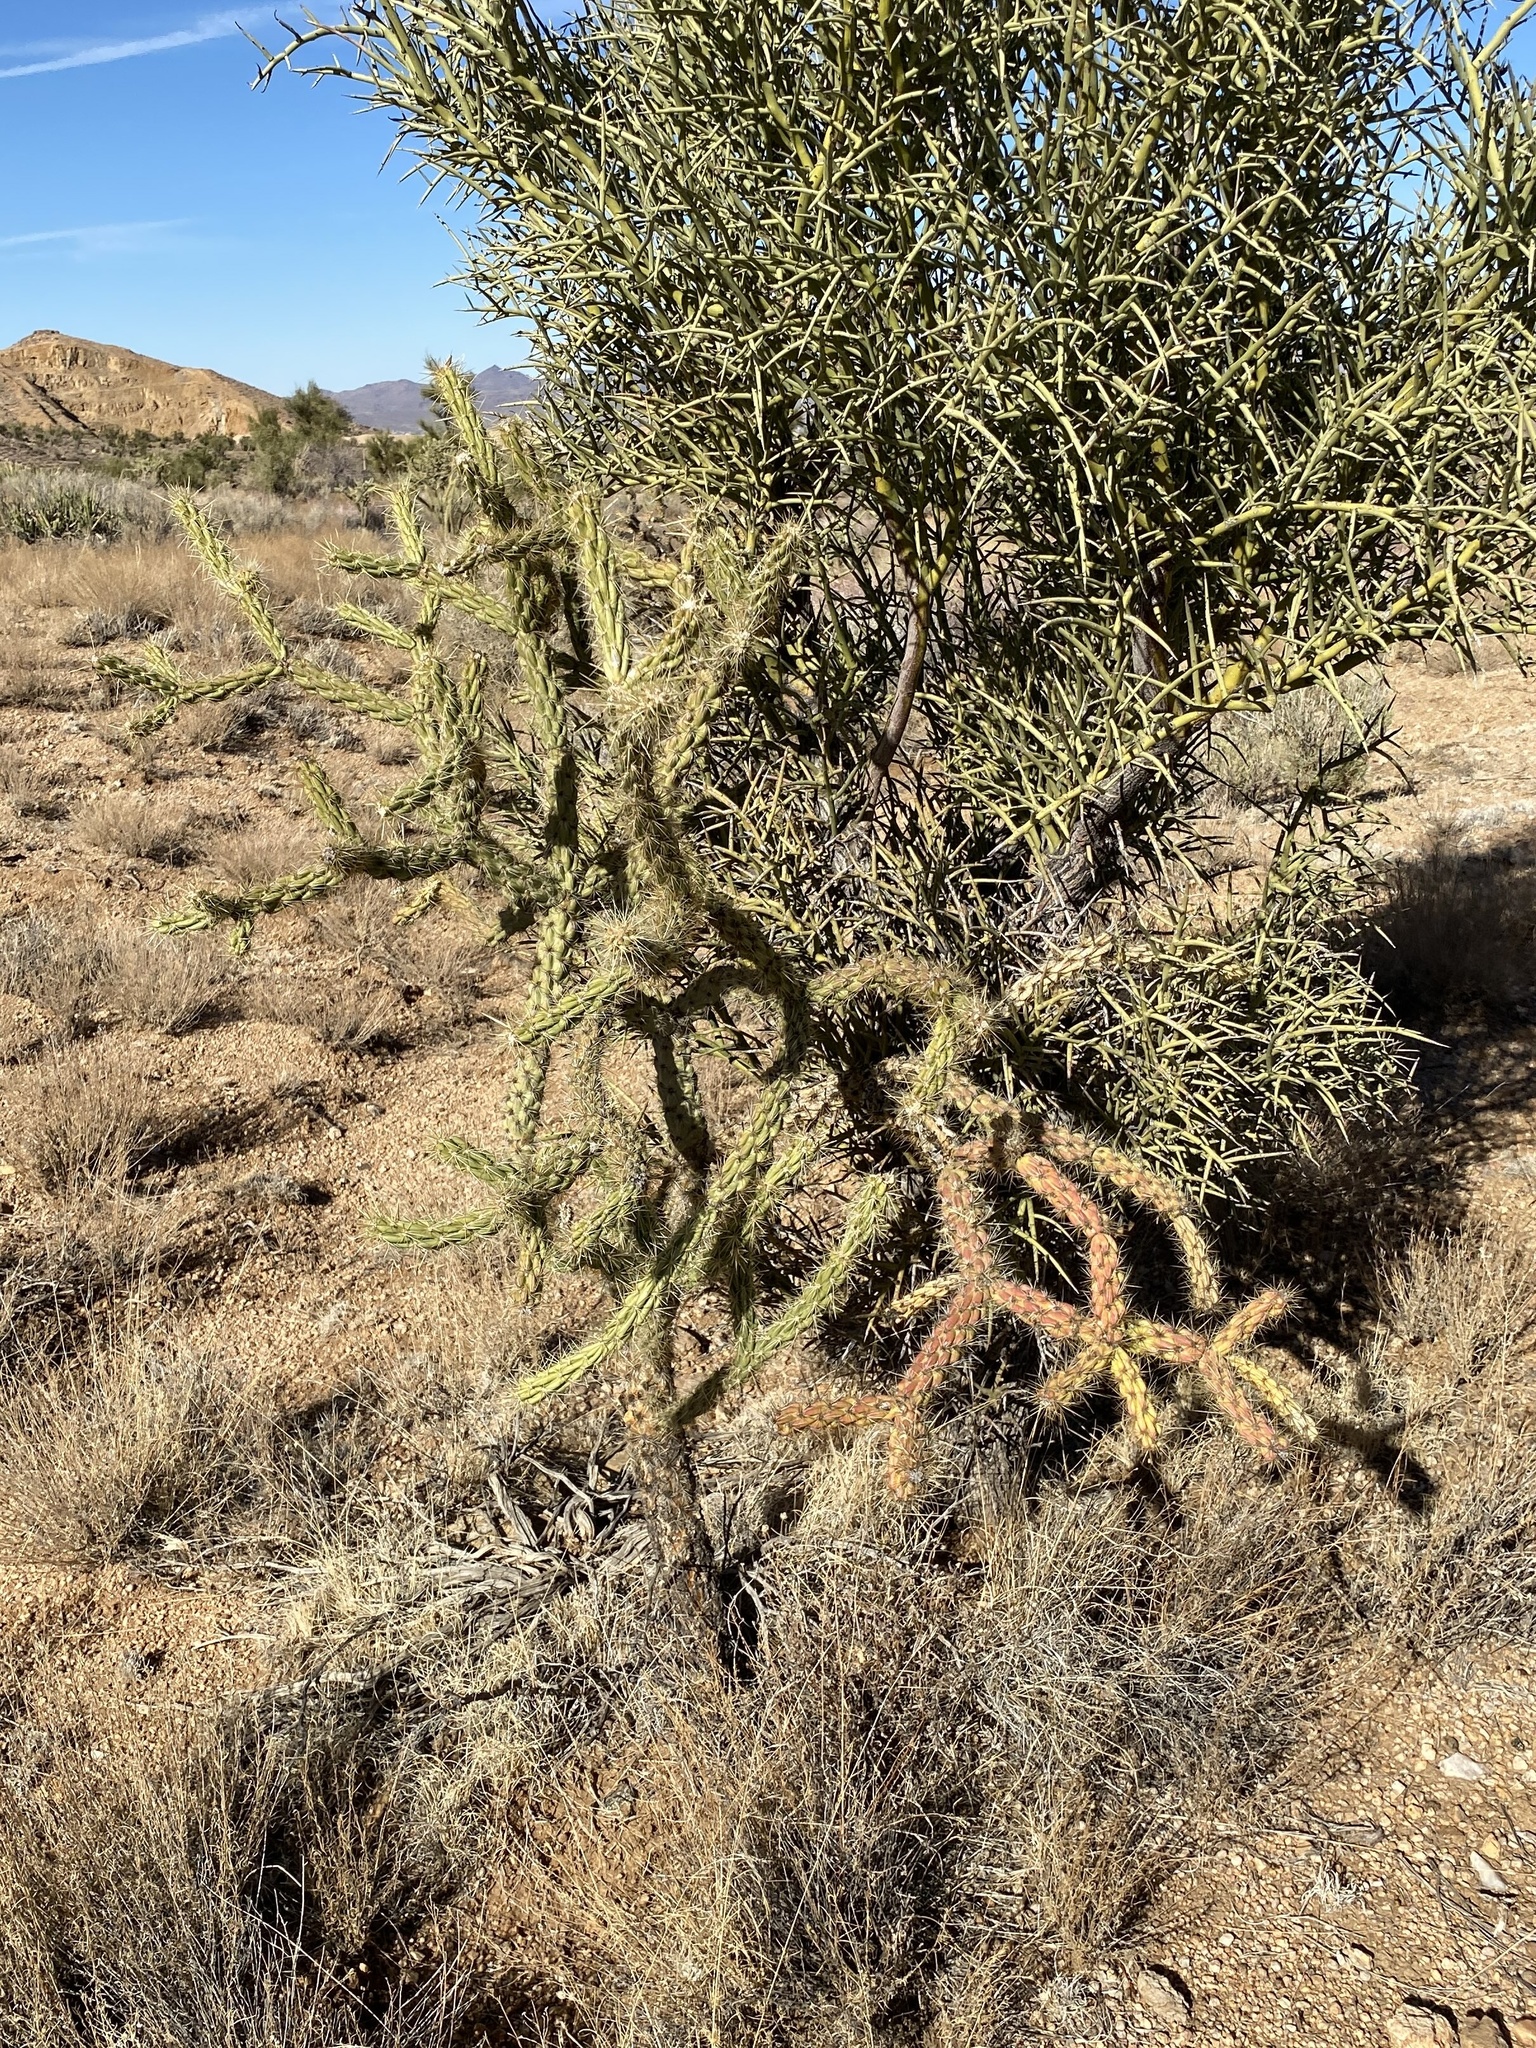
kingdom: Plantae
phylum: Tracheophyta
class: Magnoliopsida
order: Caryophyllales
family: Cactaceae
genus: Cylindropuntia
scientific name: Cylindropuntia acanthocarpa
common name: Buckhorn cholla
